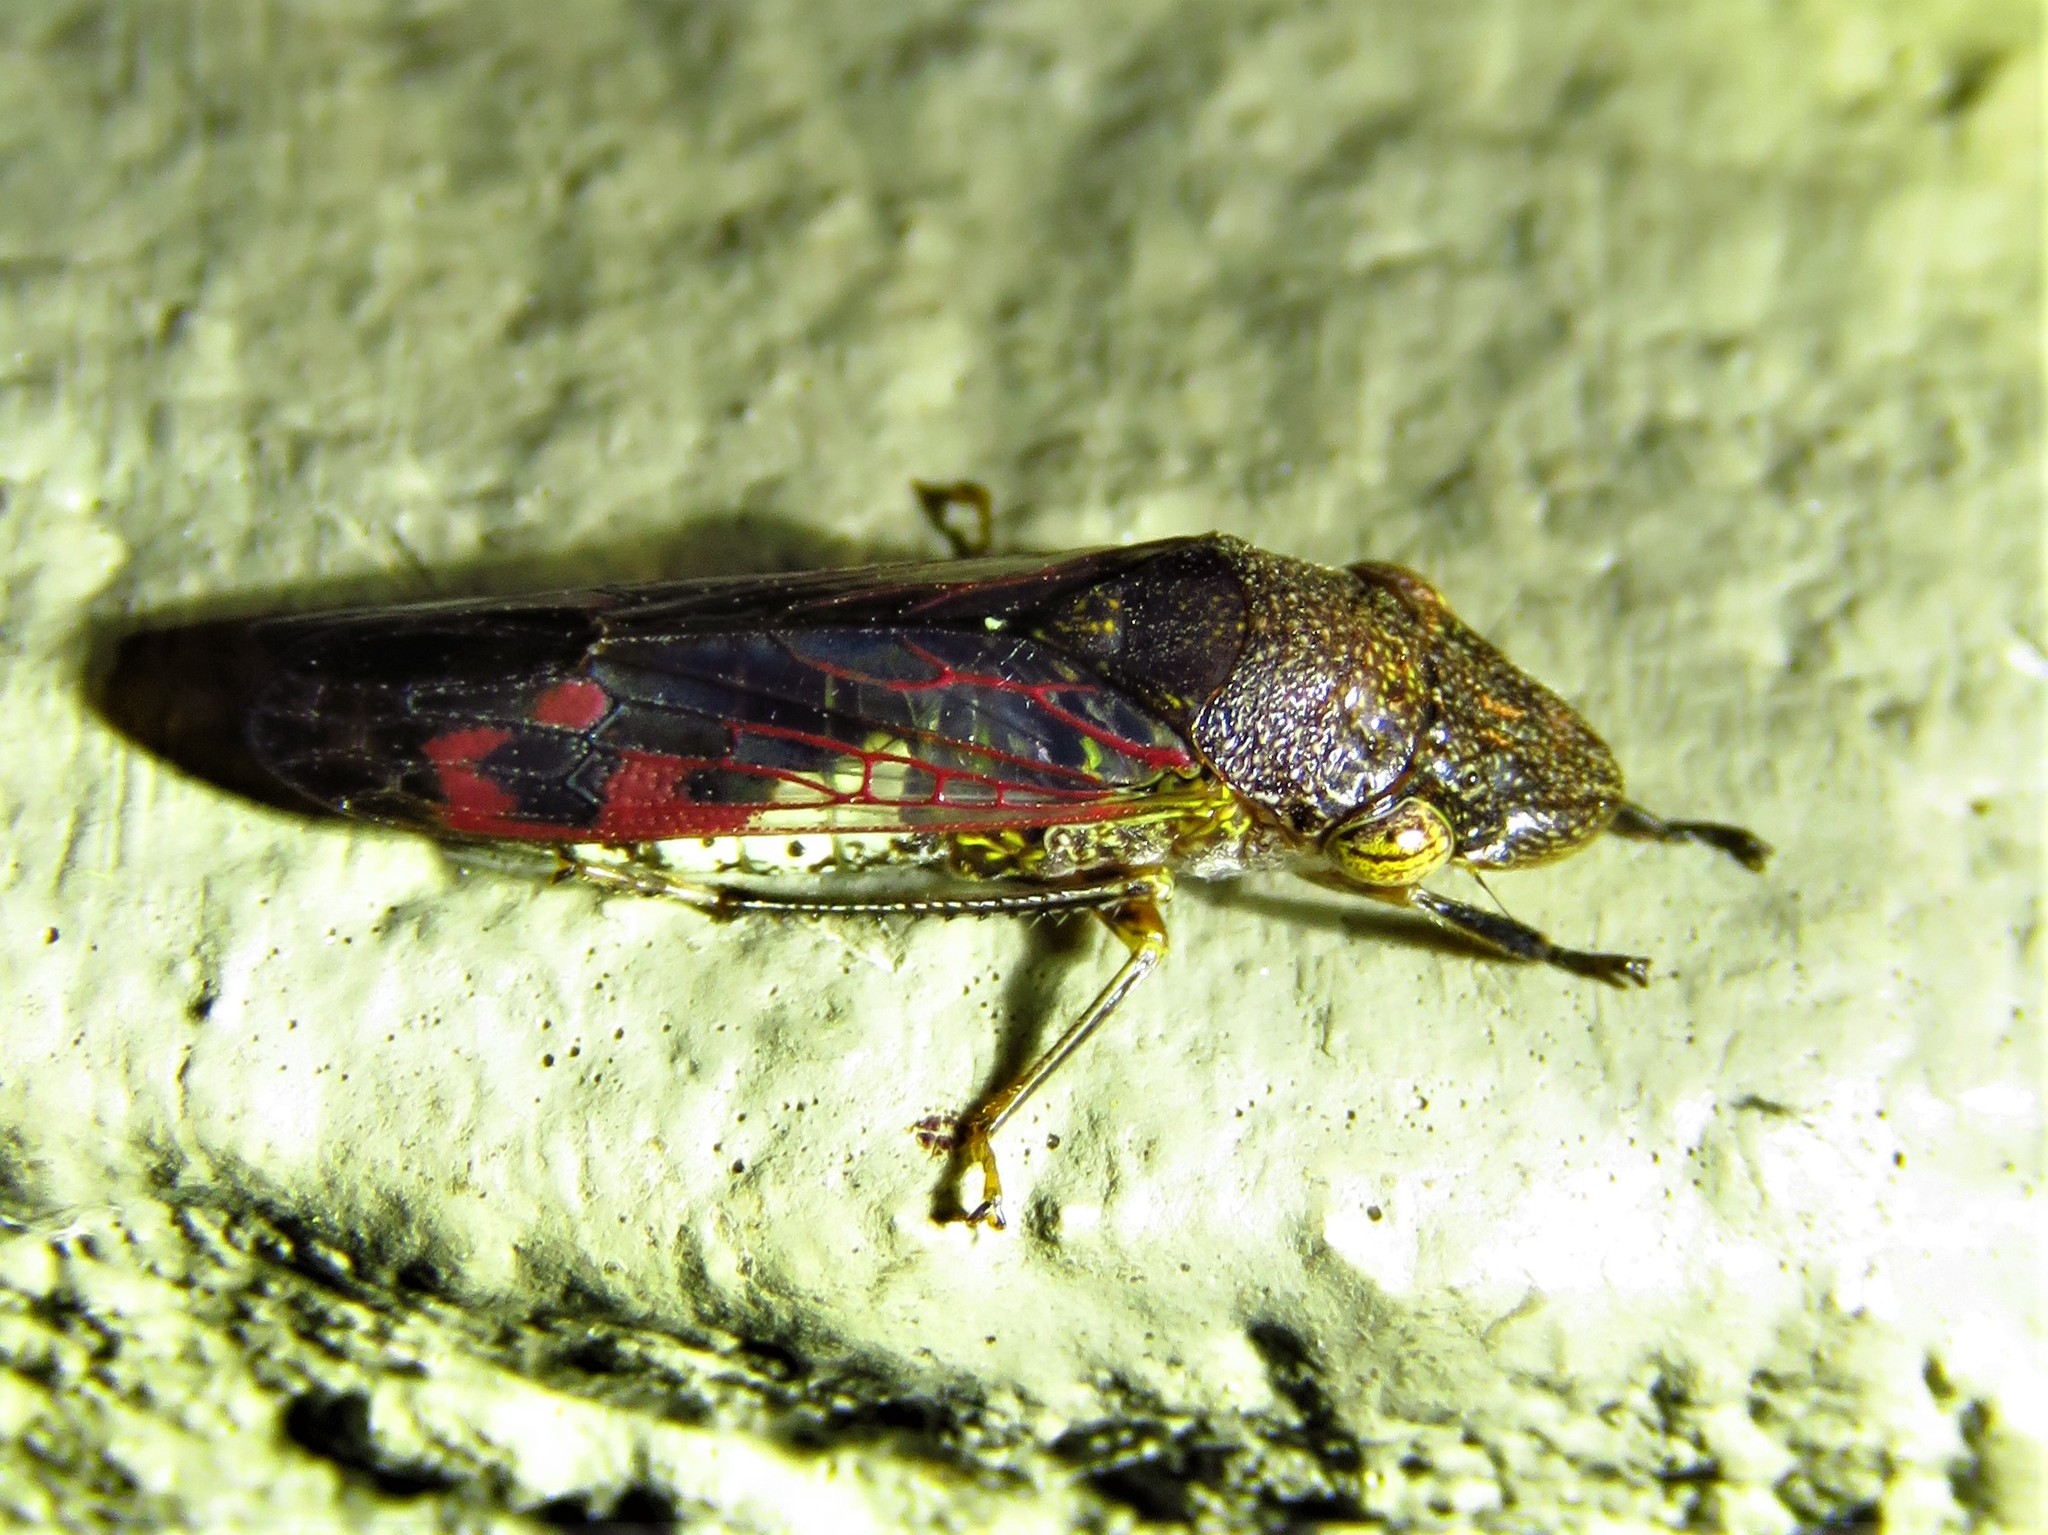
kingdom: Animalia
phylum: Arthropoda
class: Insecta
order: Hemiptera
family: Cicadellidae
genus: Homalodisca
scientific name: Homalodisca vitripennis
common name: Glassy-winged sharpshooter
